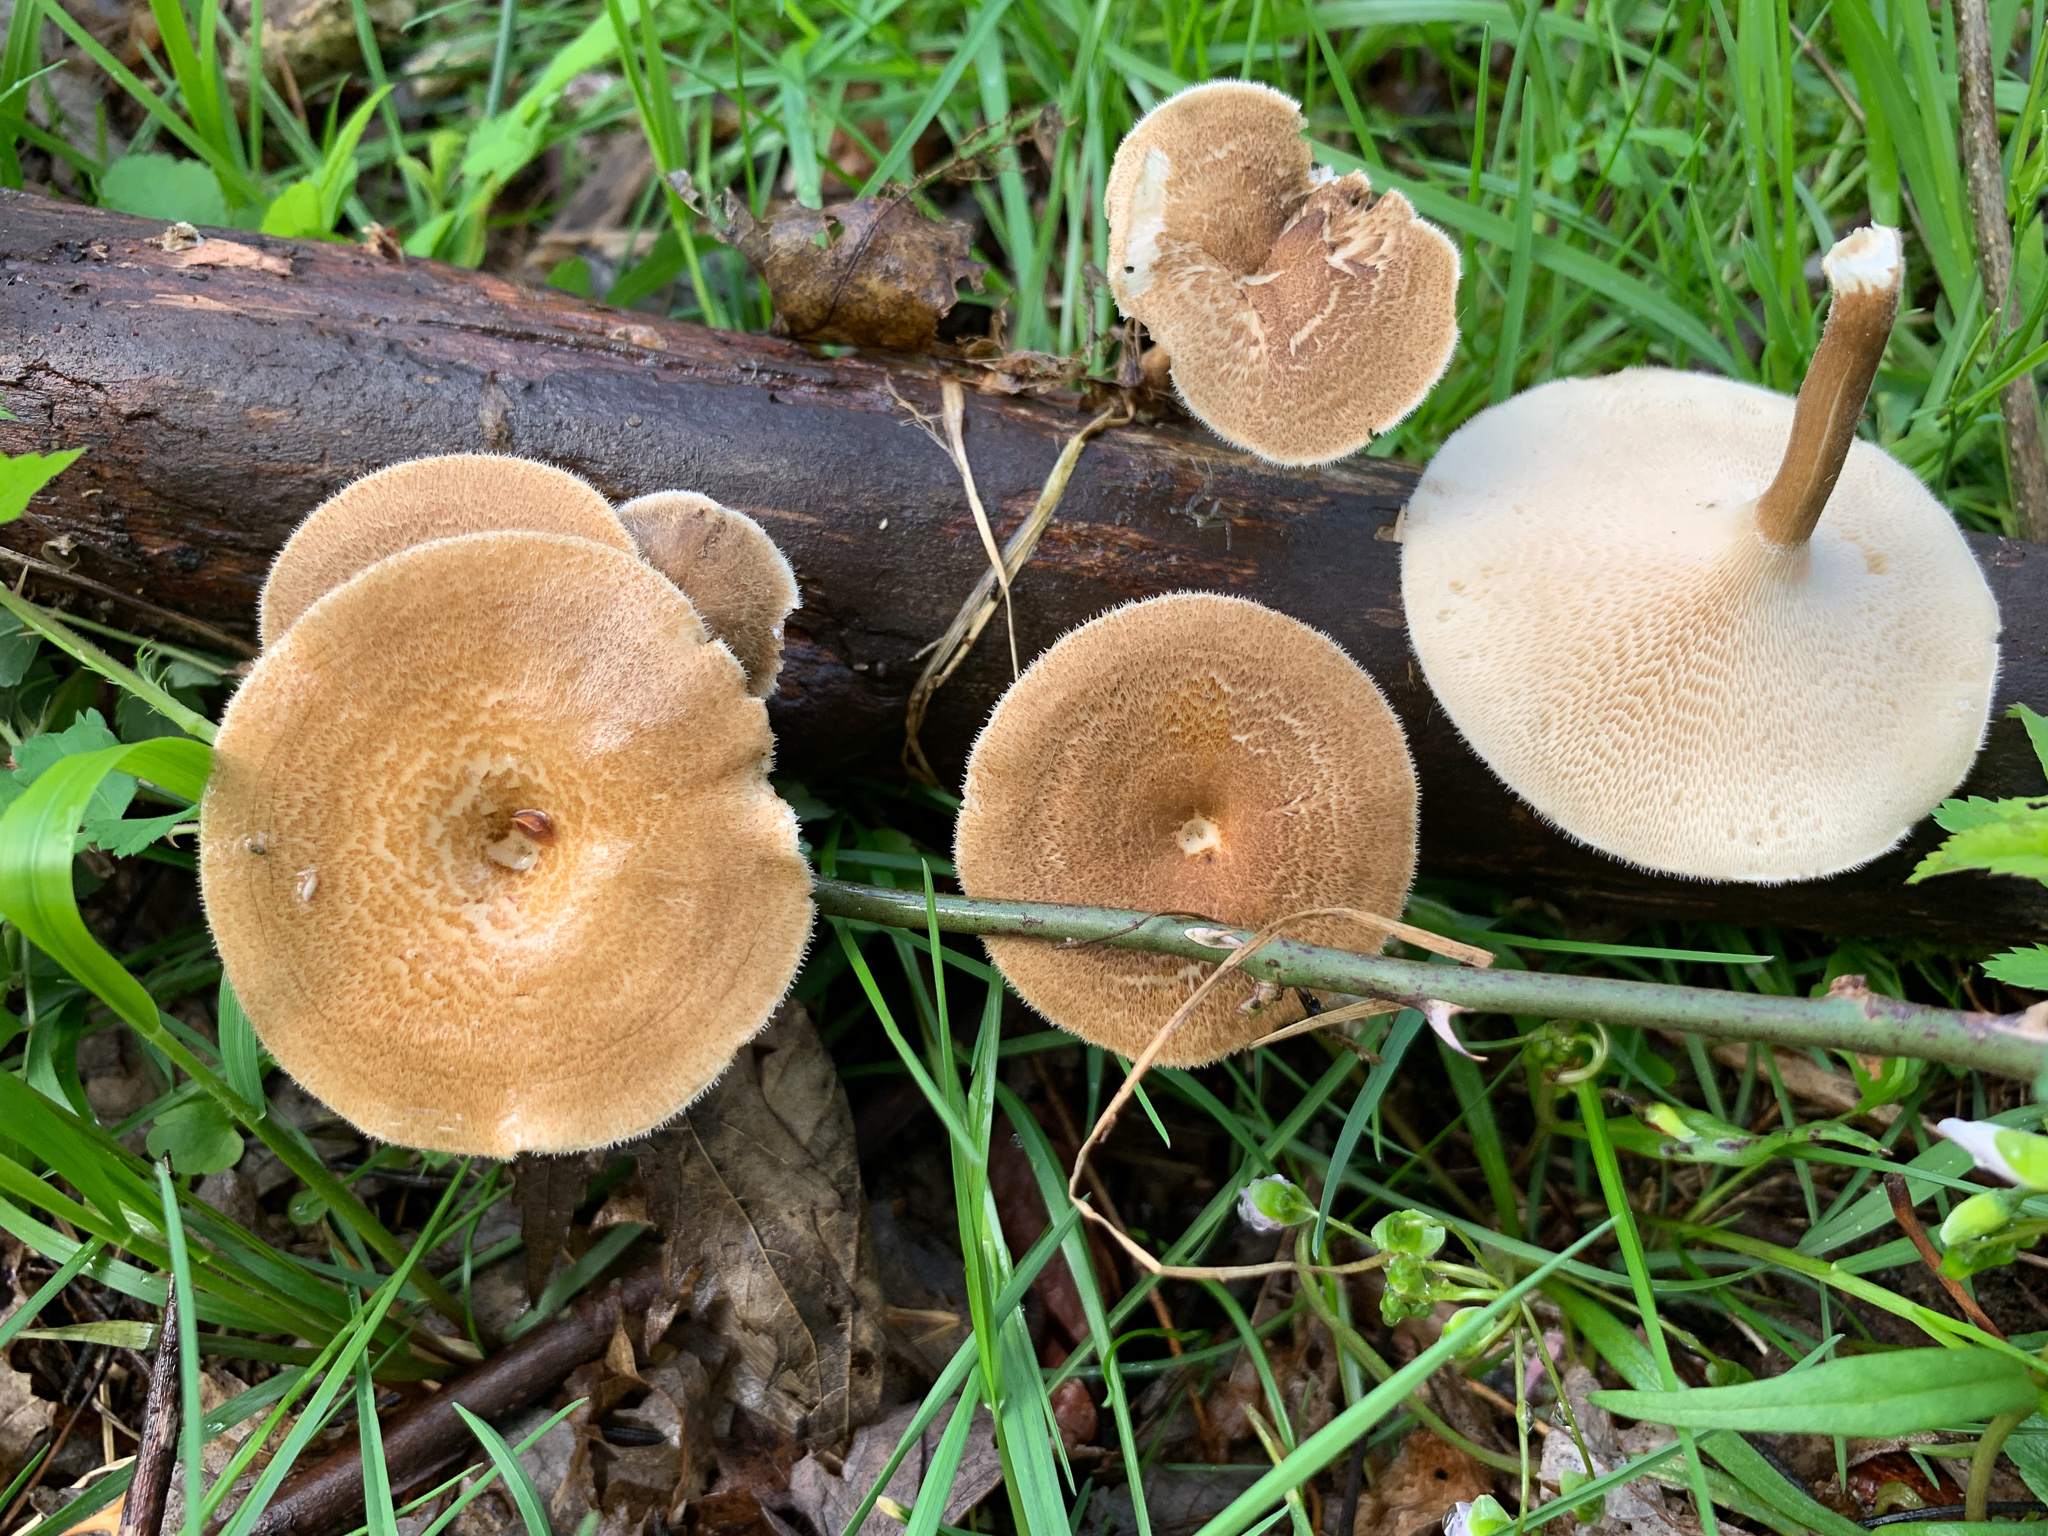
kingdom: Fungi
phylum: Basidiomycota
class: Agaricomycetes
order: Polyporales
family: Polyporaceae
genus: Lentinus
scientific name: Lentinus arcularius
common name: Spring polypore
